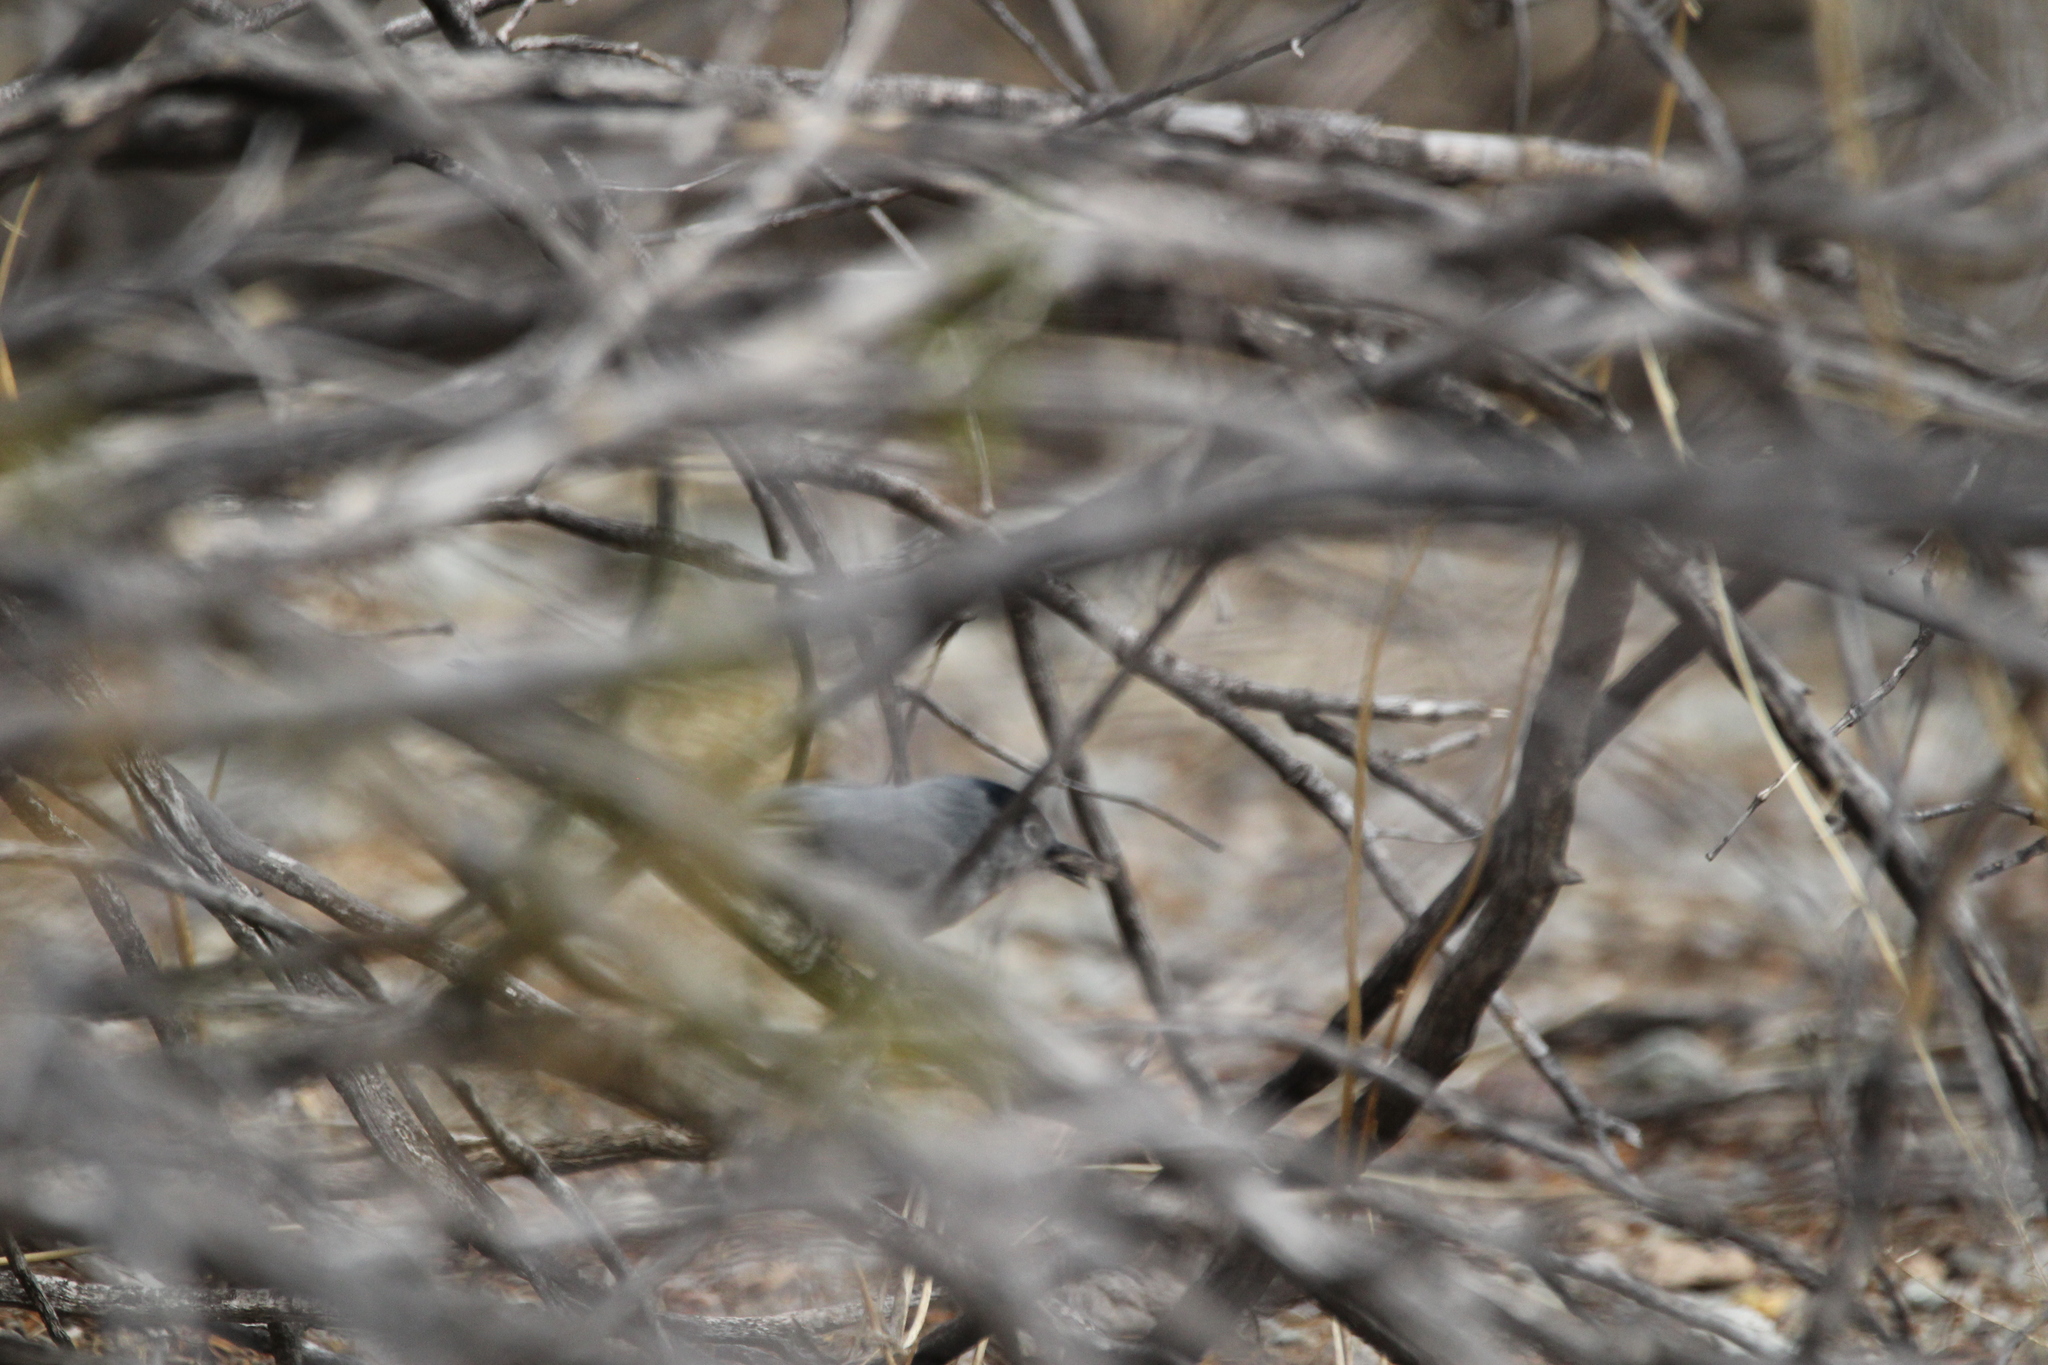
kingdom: Animalia
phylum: Chordata
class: Aves
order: Passeriformes
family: Polioptilidae
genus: Polioptila
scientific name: Polioptila melanura
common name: Black-tailed gnatcatcher
